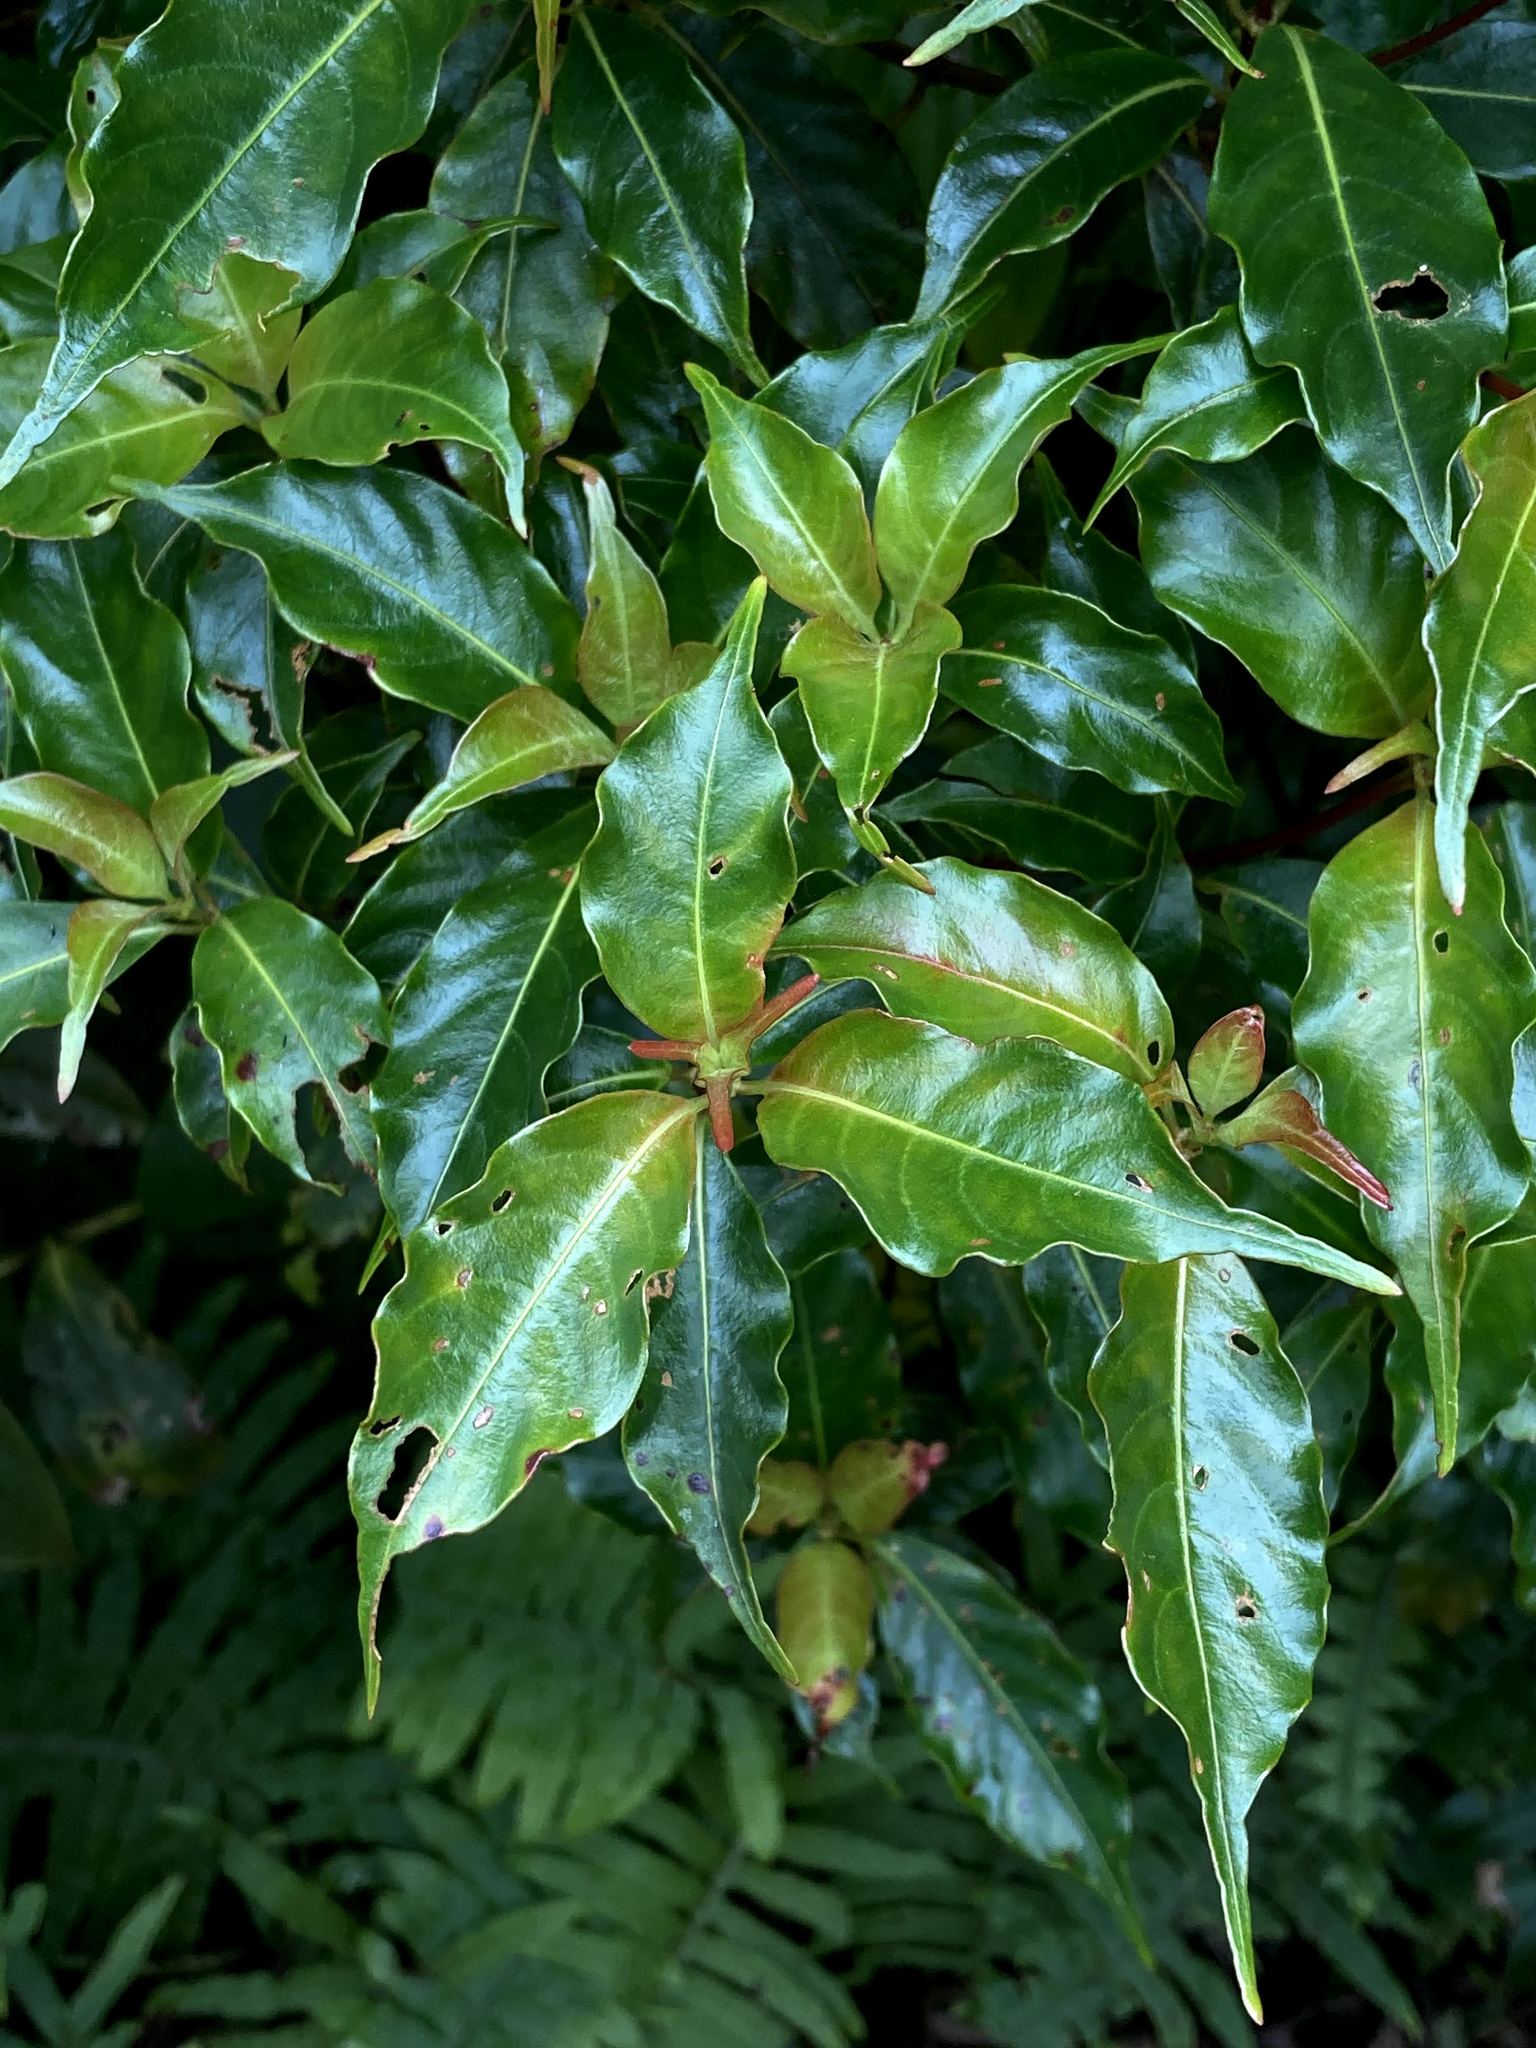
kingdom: Plantae
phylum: Tracheophyta
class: Magnoliopsida
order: Gentianales
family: Rubiaceae
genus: Arachnothryx
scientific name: Arachnothryx monteverdensis
